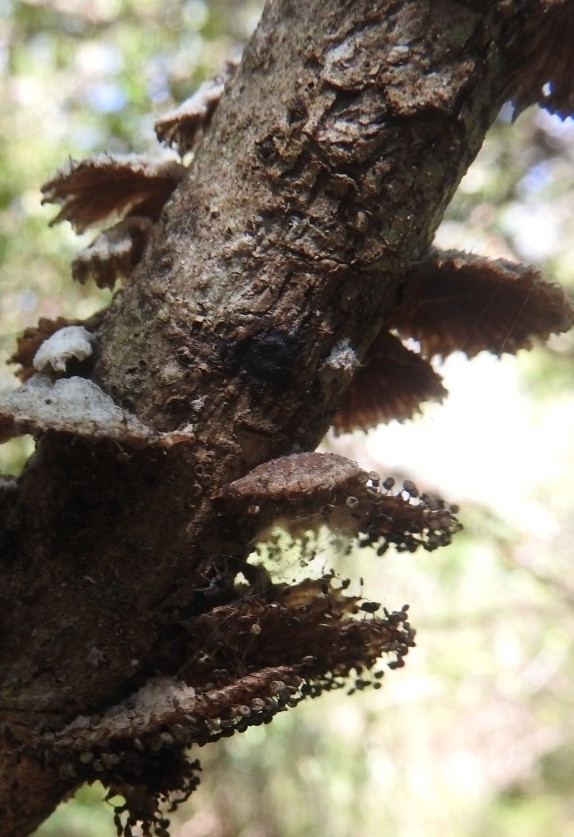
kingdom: Fungi
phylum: Basidiomycota
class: Agaricomycetes
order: Agaricales
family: Schizophyllaceae
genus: Schizophyllum
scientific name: Schizophyllum commune
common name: Common porecrust
